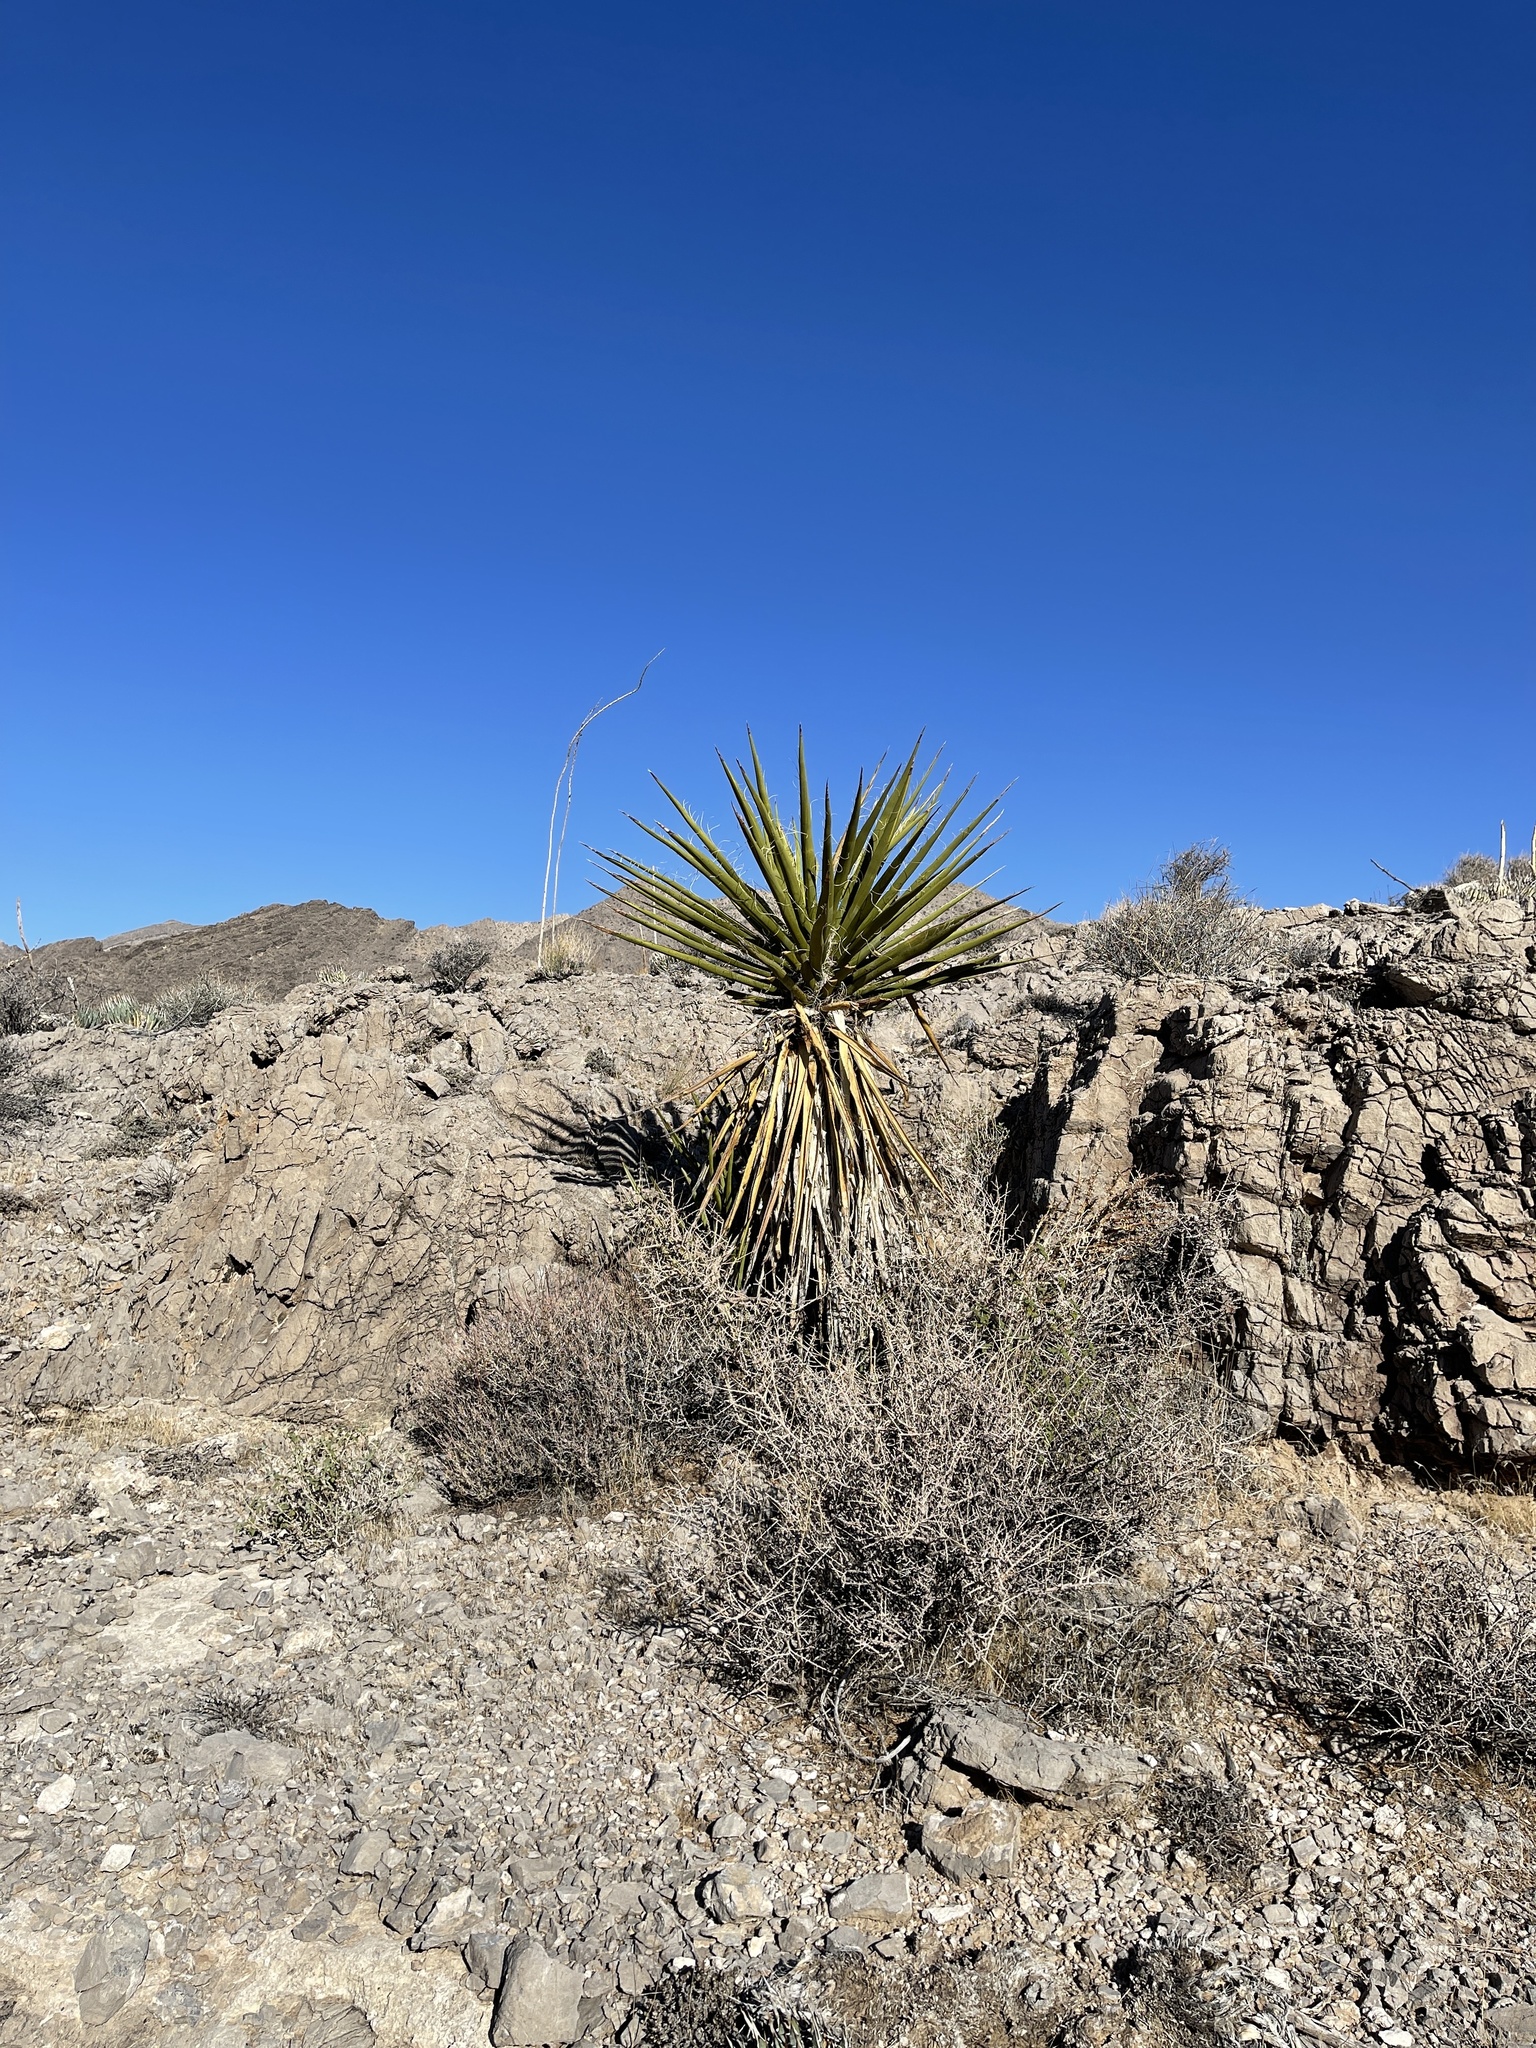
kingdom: Plantae
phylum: Tracheophyta
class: Liliopsida
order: Asparagales
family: Asparagaceae
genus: Yucca
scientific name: Yucca schidigera
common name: Mojave yucca
